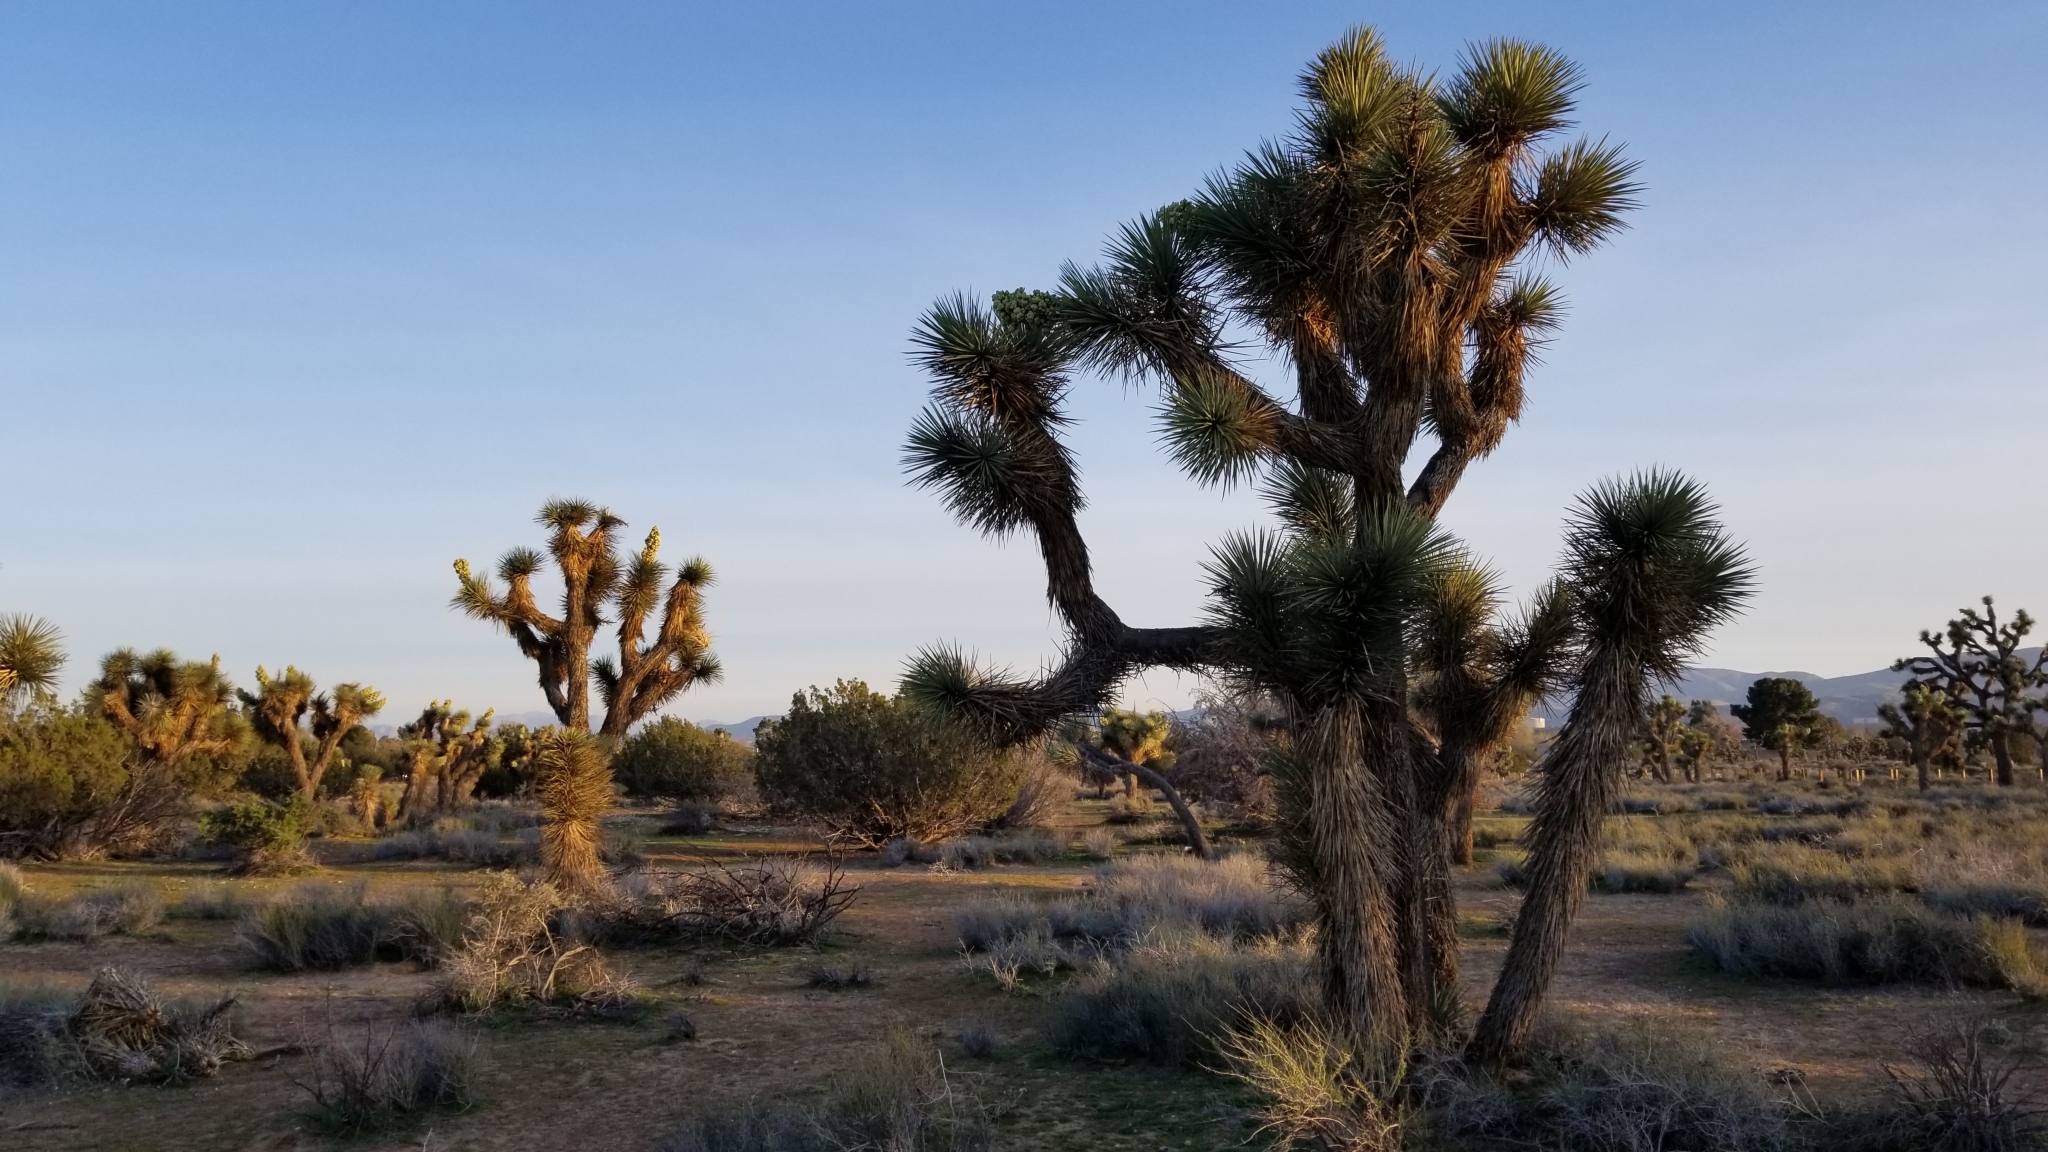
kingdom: Plantae
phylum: Tracheophyta
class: Liliopsida
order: Asparagales
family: Asparagaceae
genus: Yucca
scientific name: Yucca brevifolia
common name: Joshua tree
